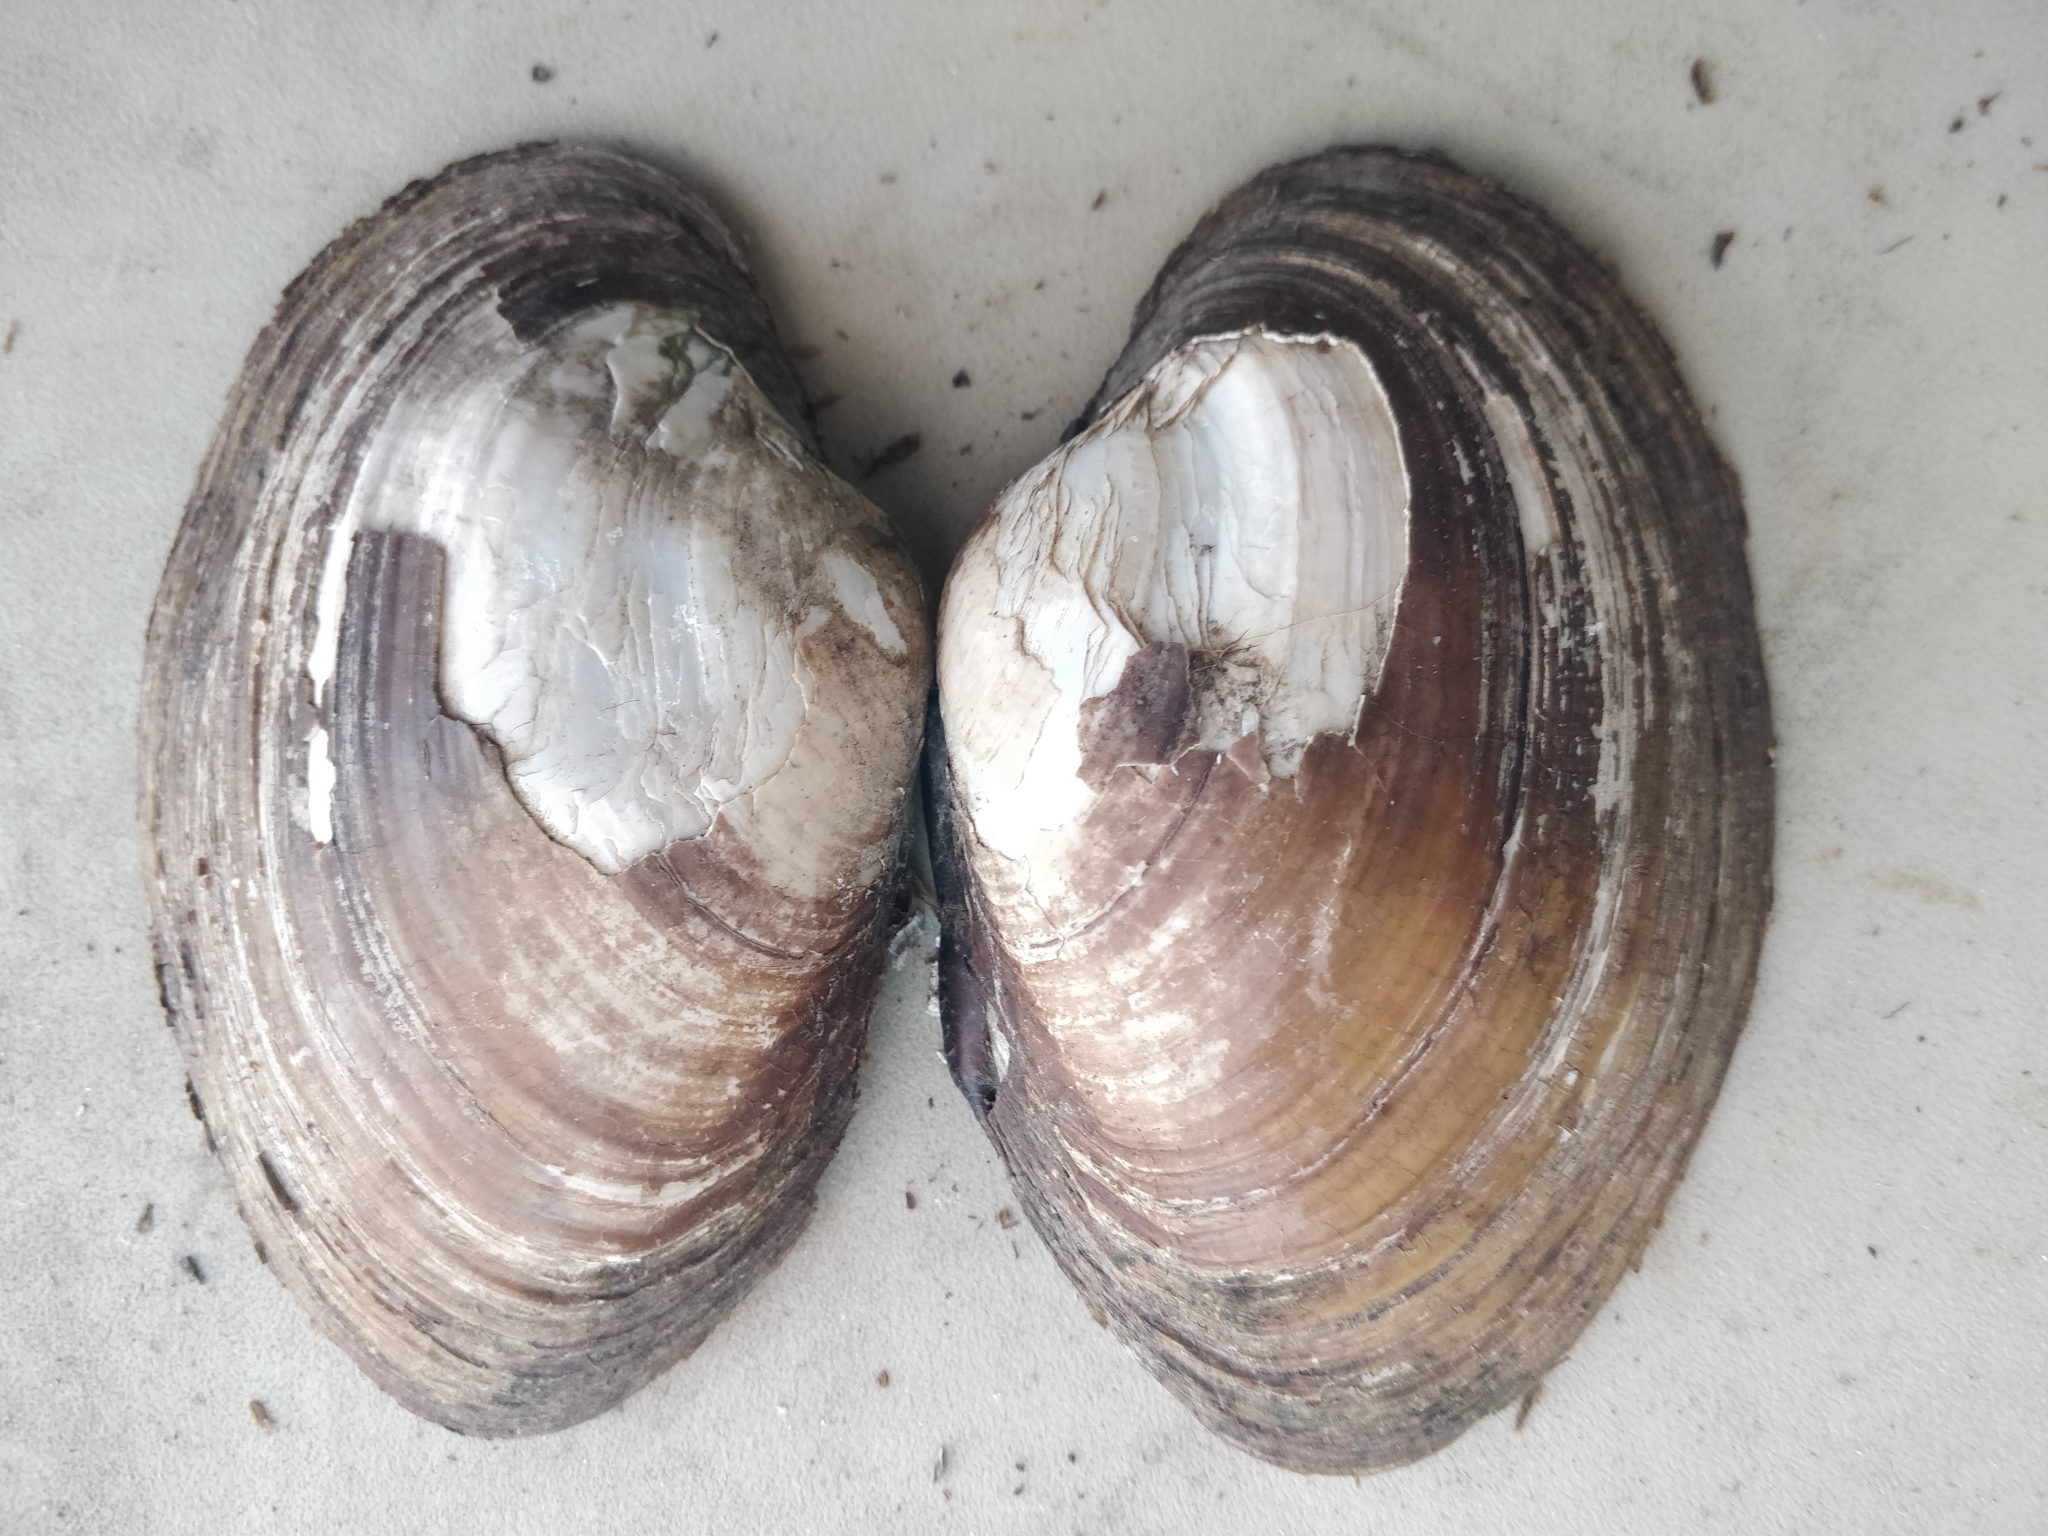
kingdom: Animalia
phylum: Mollusca
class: Bivalvia
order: Unionida
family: Unionidae
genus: Lampsilis
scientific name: Lampsilis cardium
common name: Plain pocketbook
